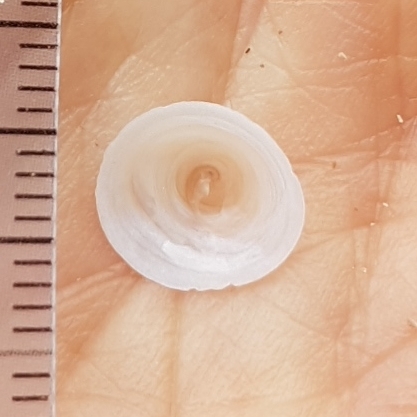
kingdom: Animalia
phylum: Mollusca
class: Gastropoda
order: Littorinimorpha
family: Calyptraeidae
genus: Calyptraea
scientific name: Calyptraea chinensis
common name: Chinaman's hat
